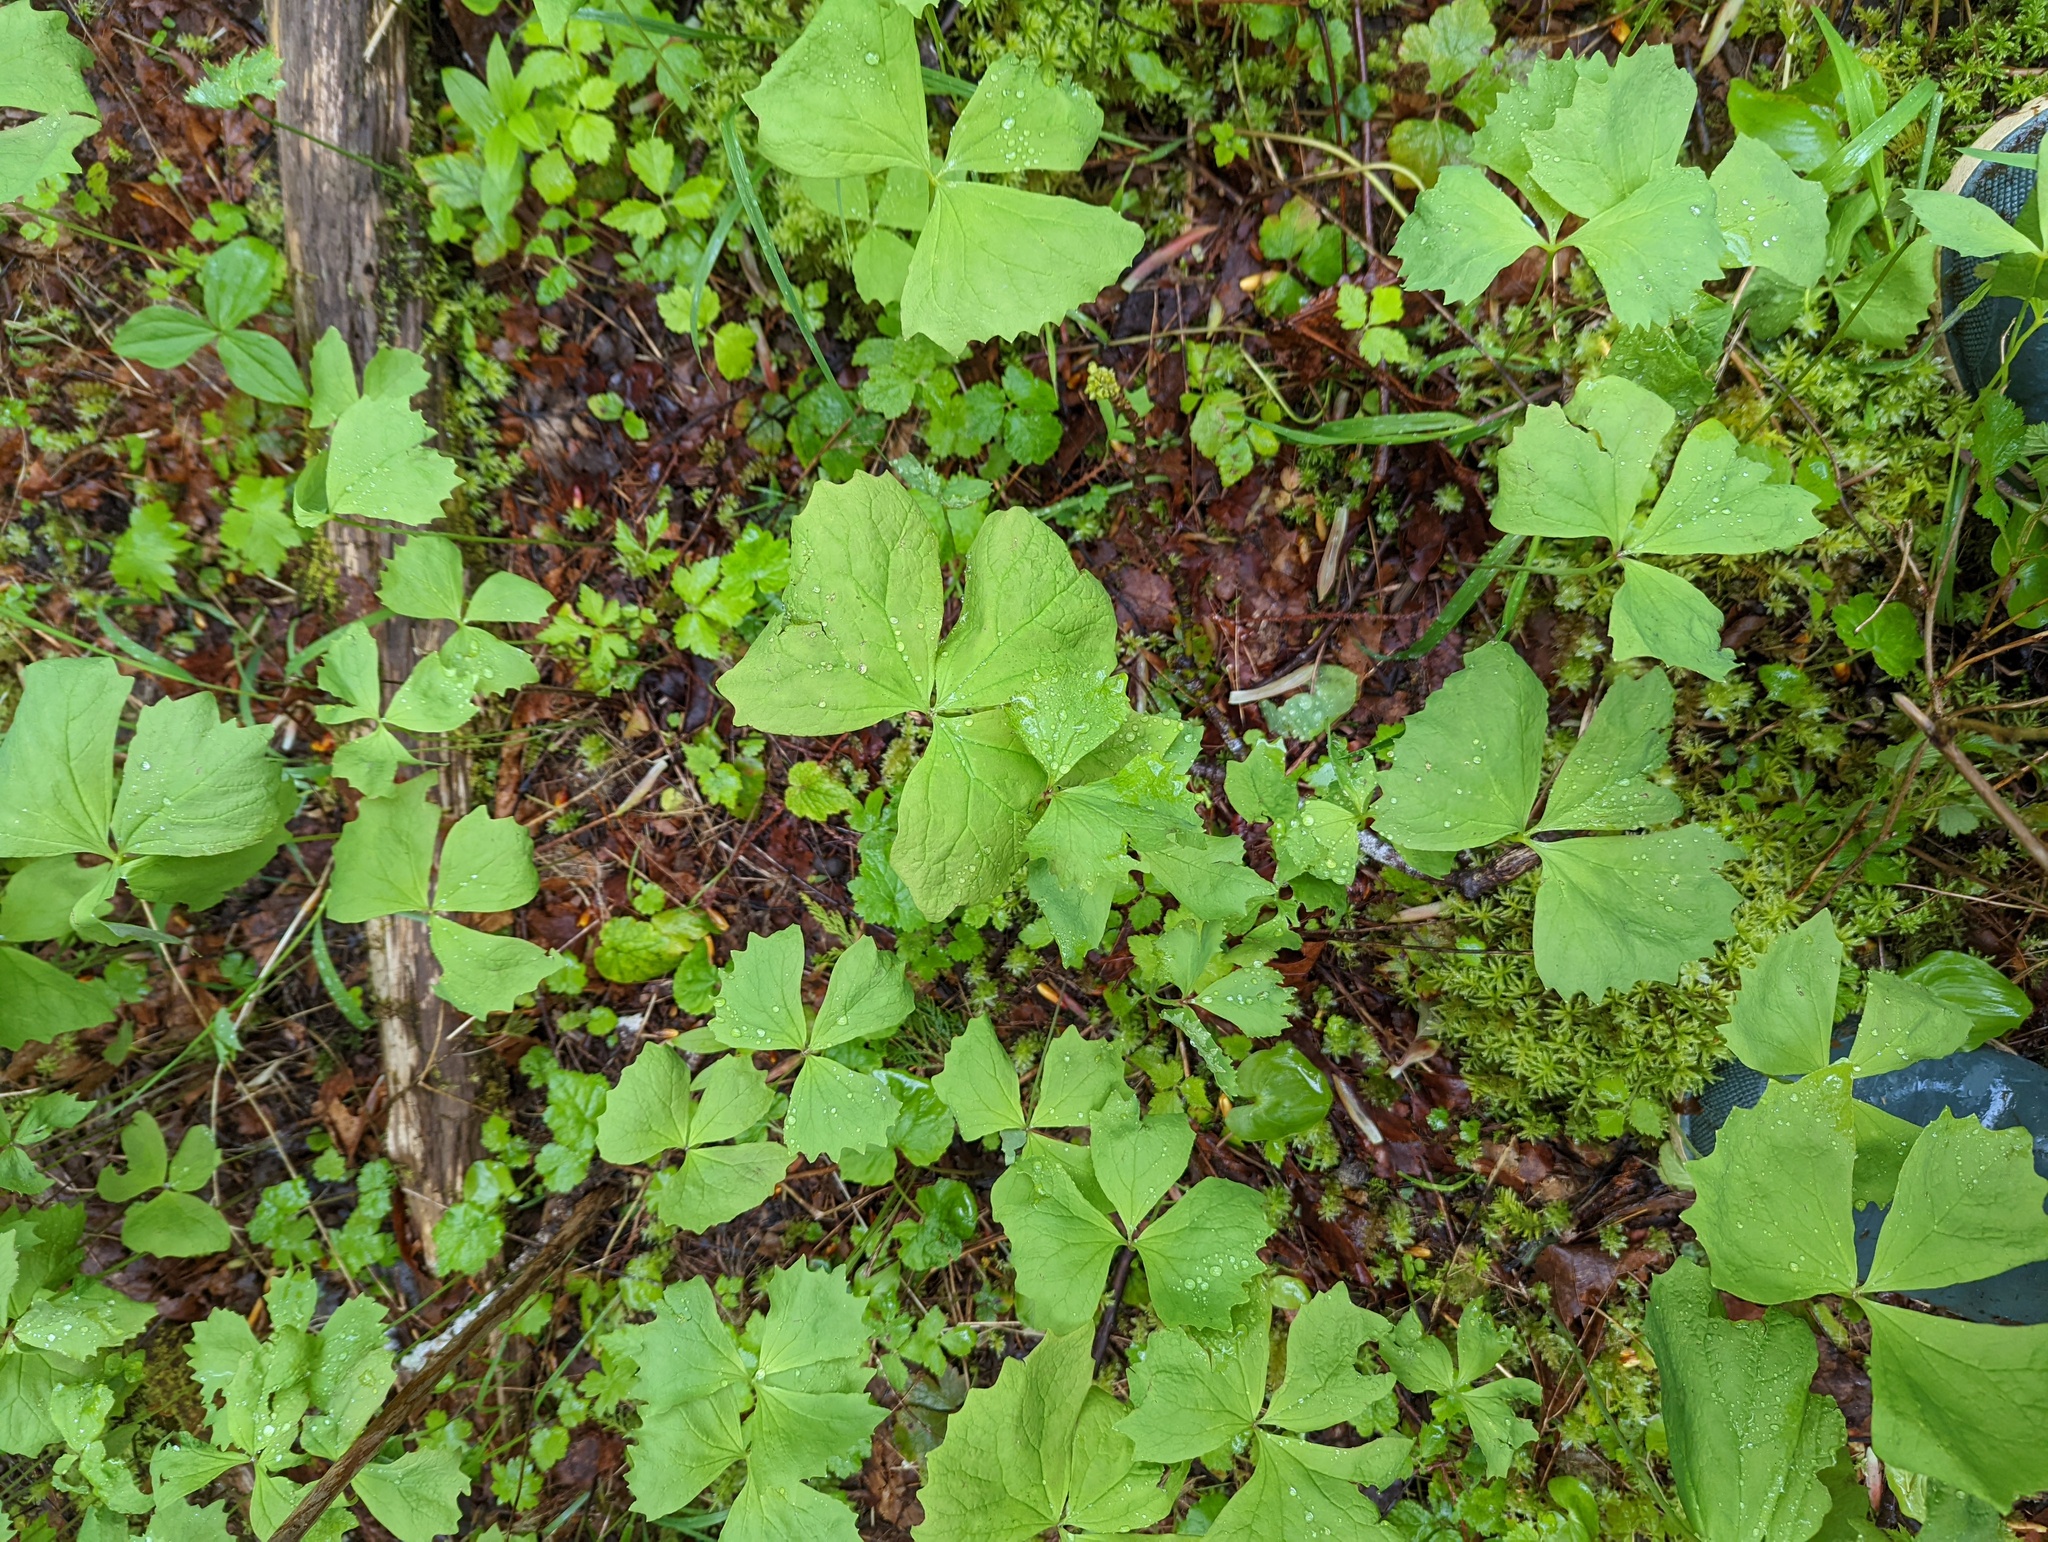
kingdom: Plantae
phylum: Tracheophyta
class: Magnoliopsida
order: Ranunculales
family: Berberidaceae
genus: Achlys
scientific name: Achlys triphylla
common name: Vanilla-leaf
